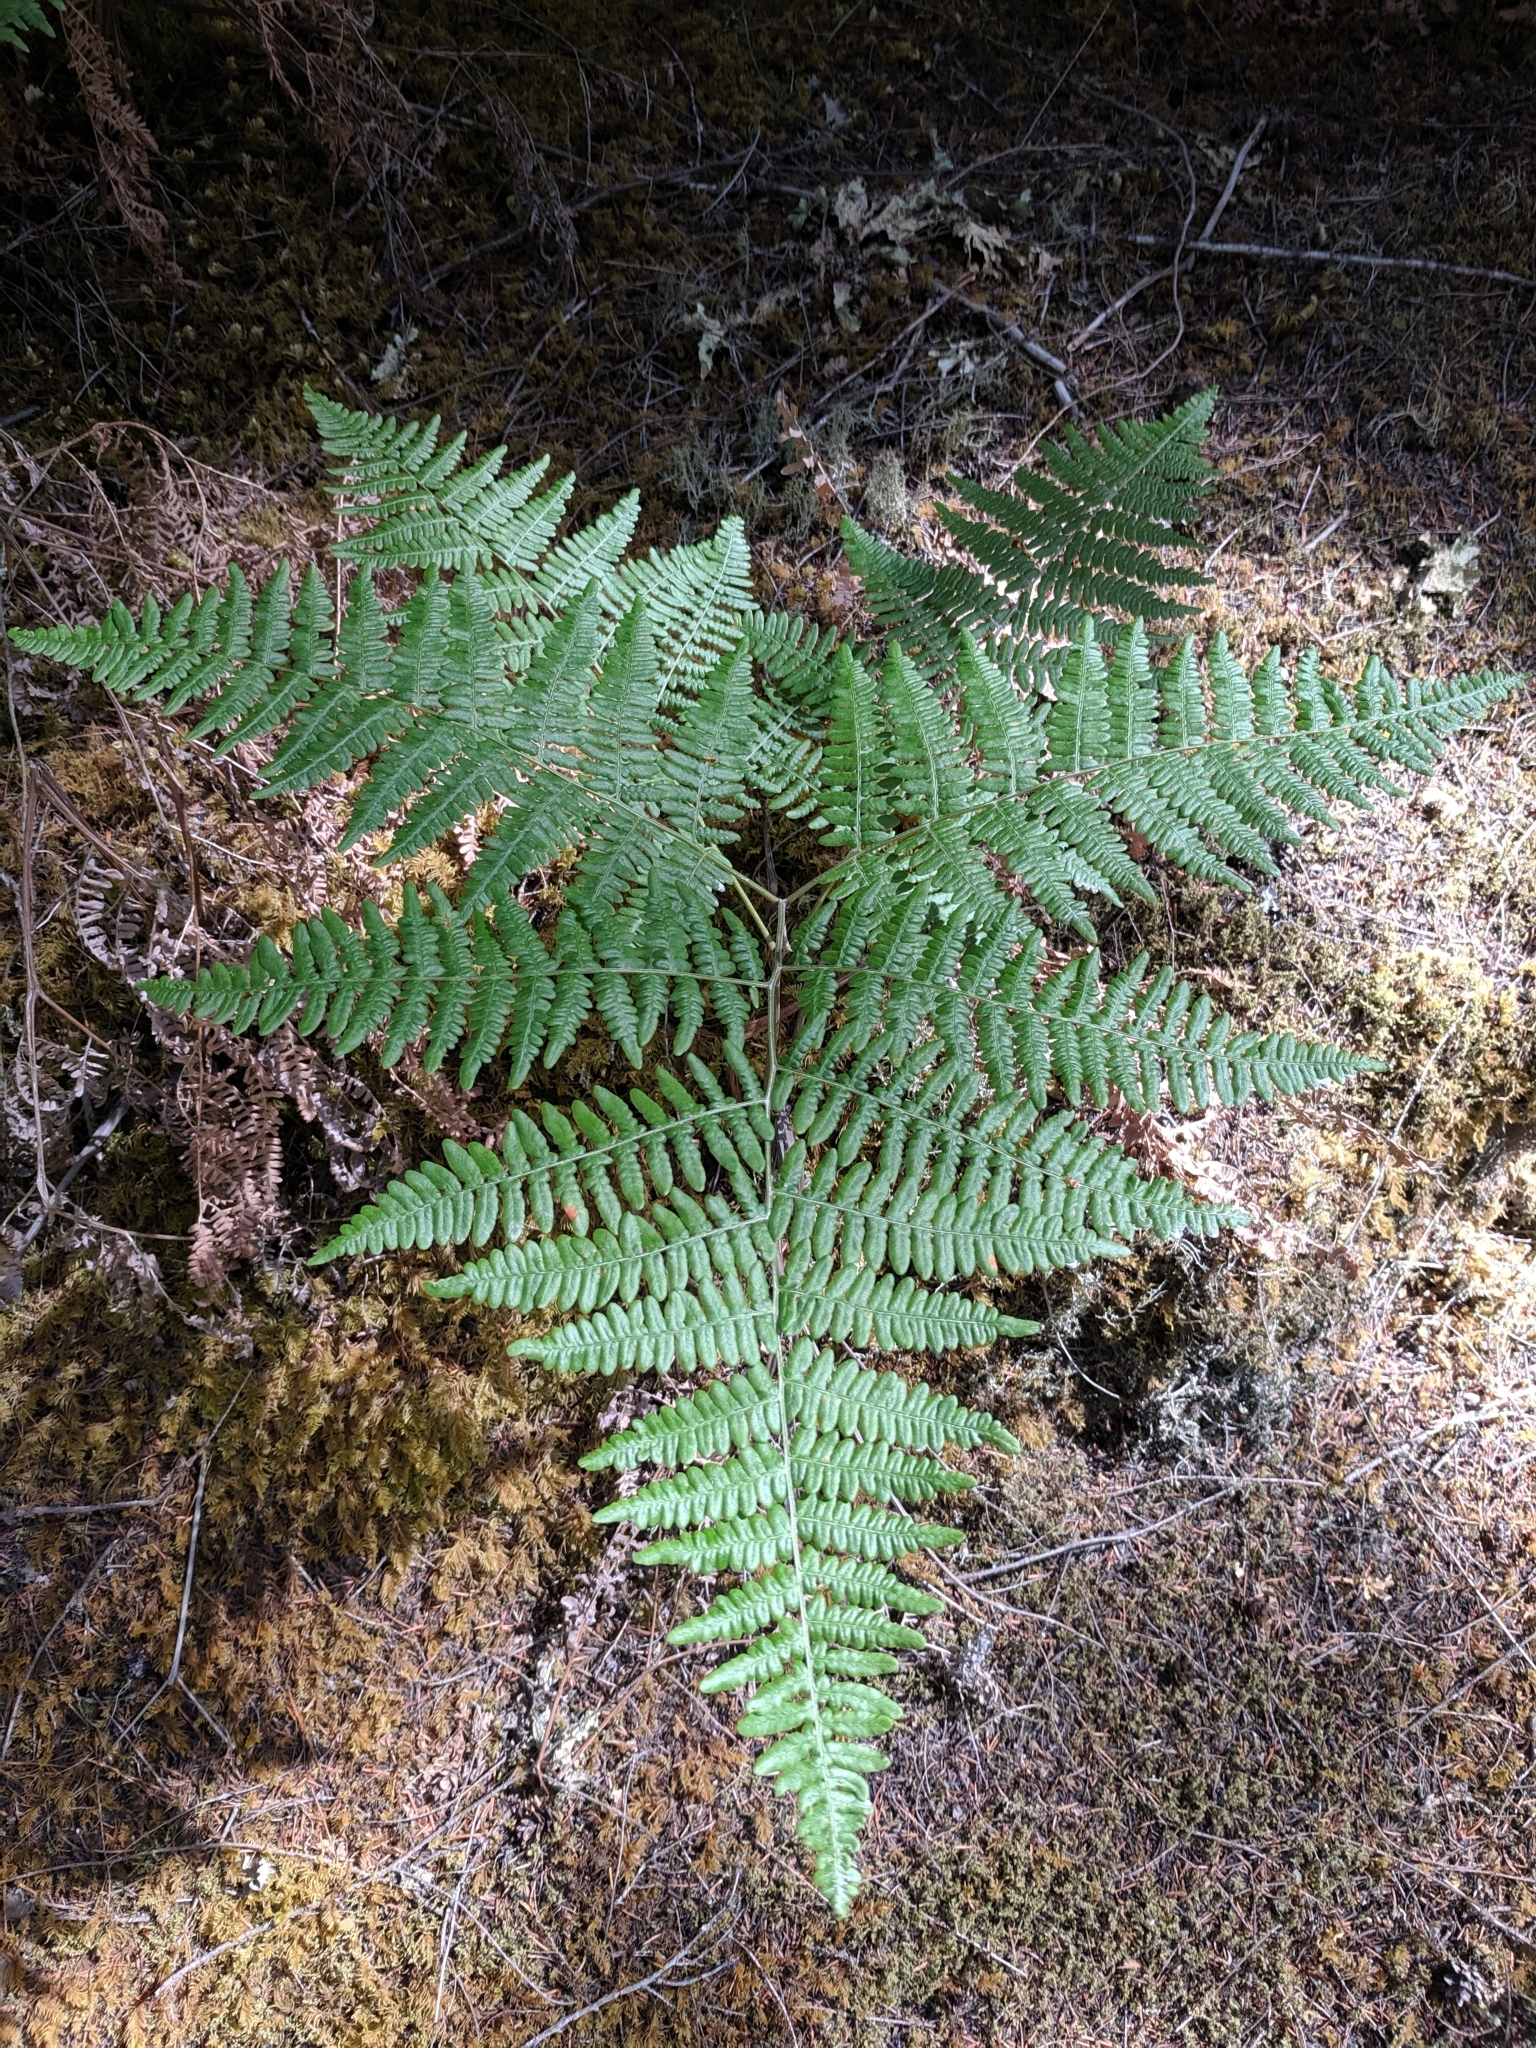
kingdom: Plantae
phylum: Tracheophyta
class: Polypodiopsida
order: Polypodiales
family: Dennstaedtiaceae
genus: Pteridium
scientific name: Pteridium aquilinum
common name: Bracken
